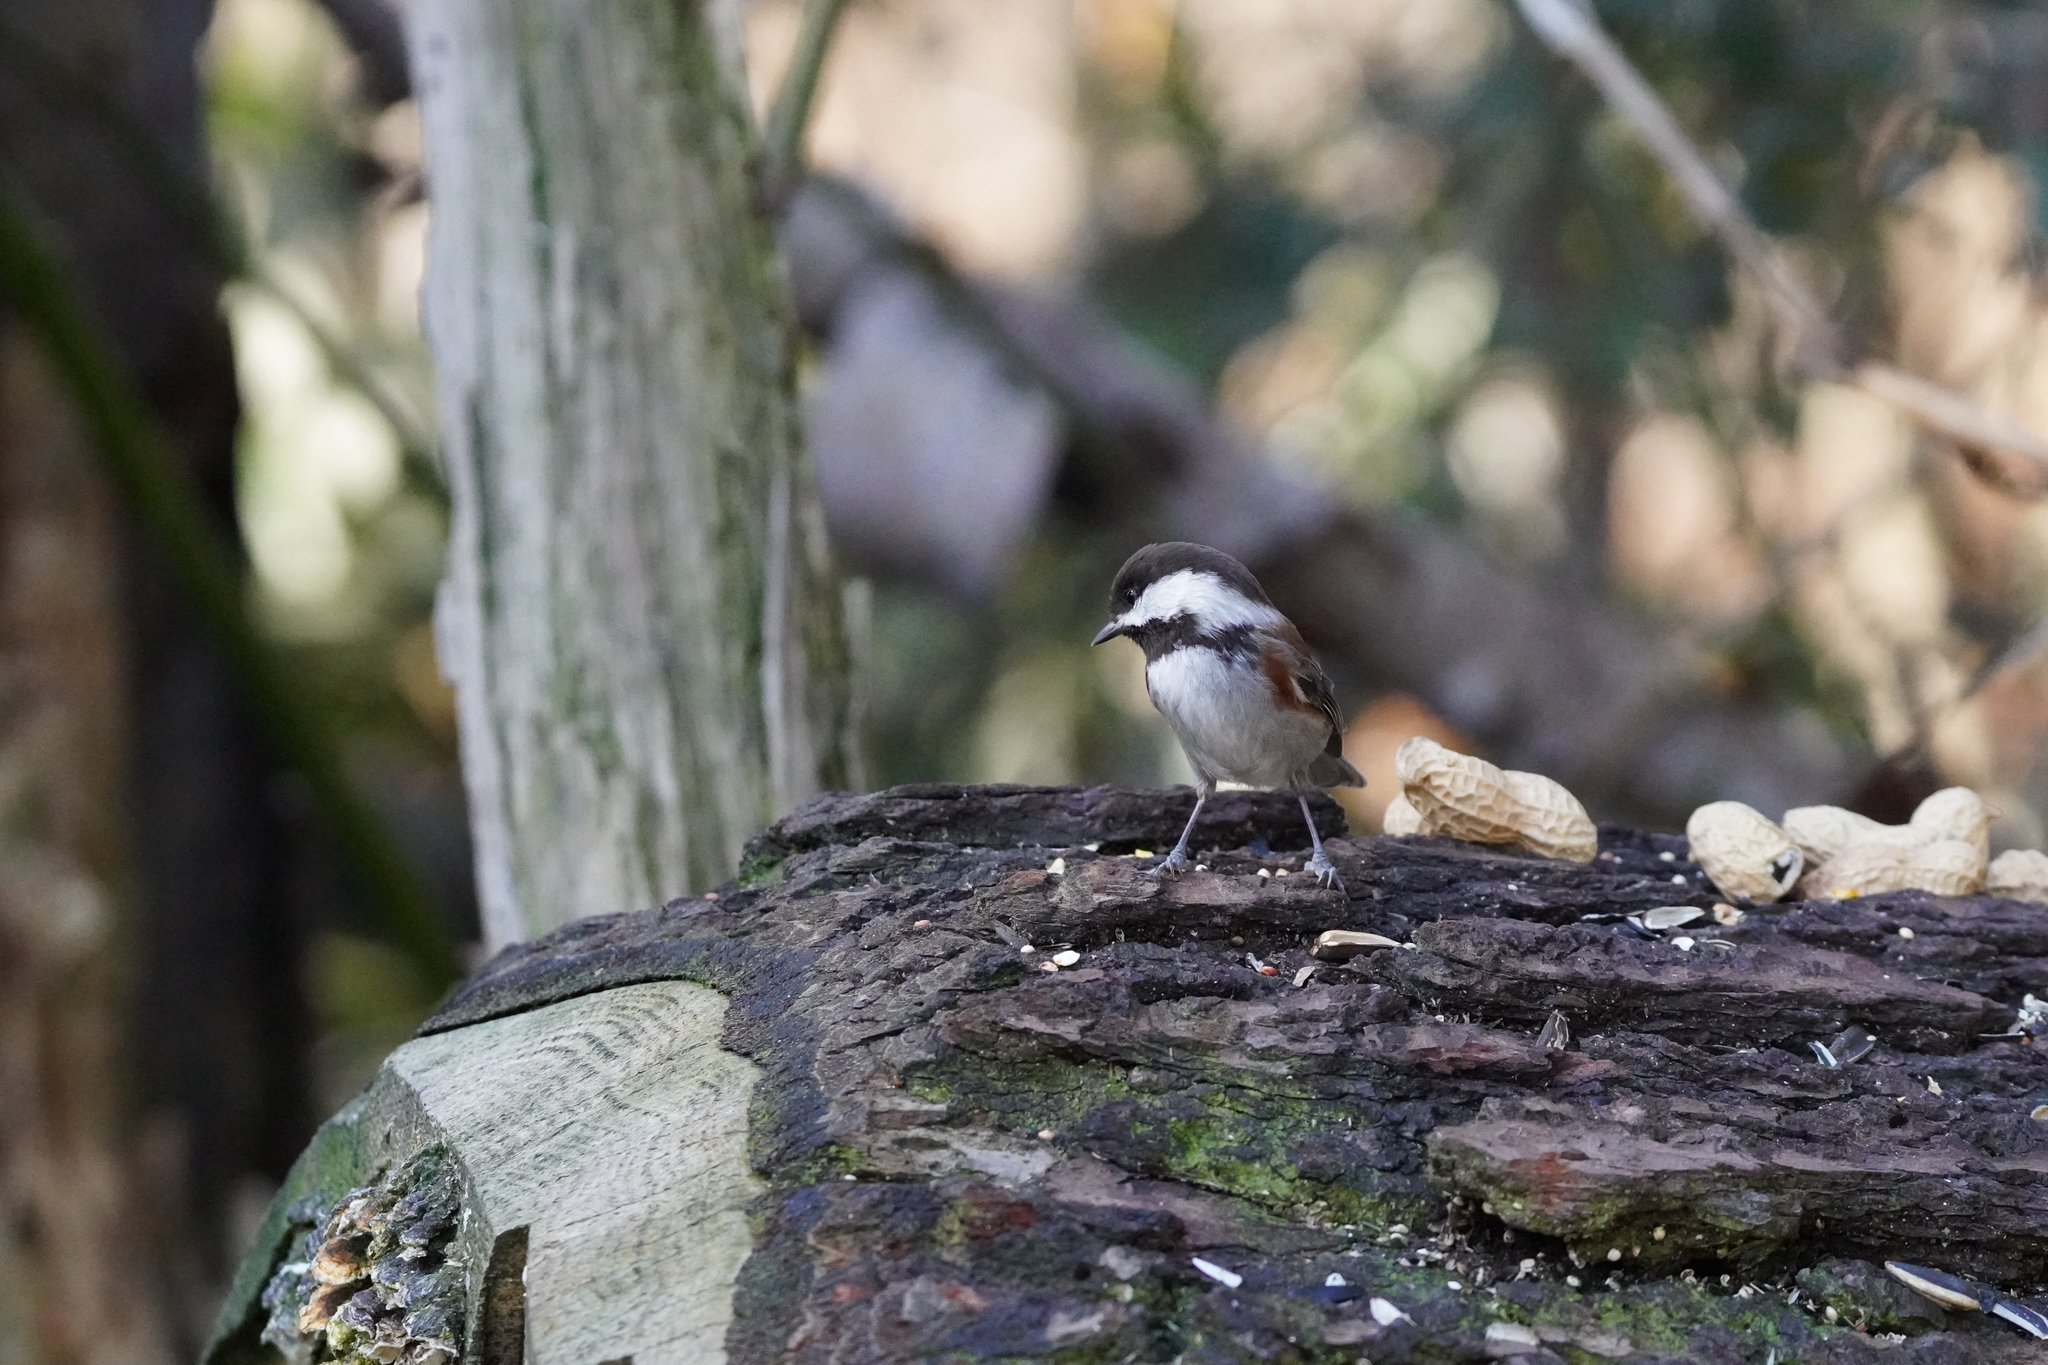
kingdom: Animalia
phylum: Chordata
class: Aves
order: Passeriformes
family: Paridae
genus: Poecile
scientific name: Poecile rufescens
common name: Chestnut-backed chickadee
